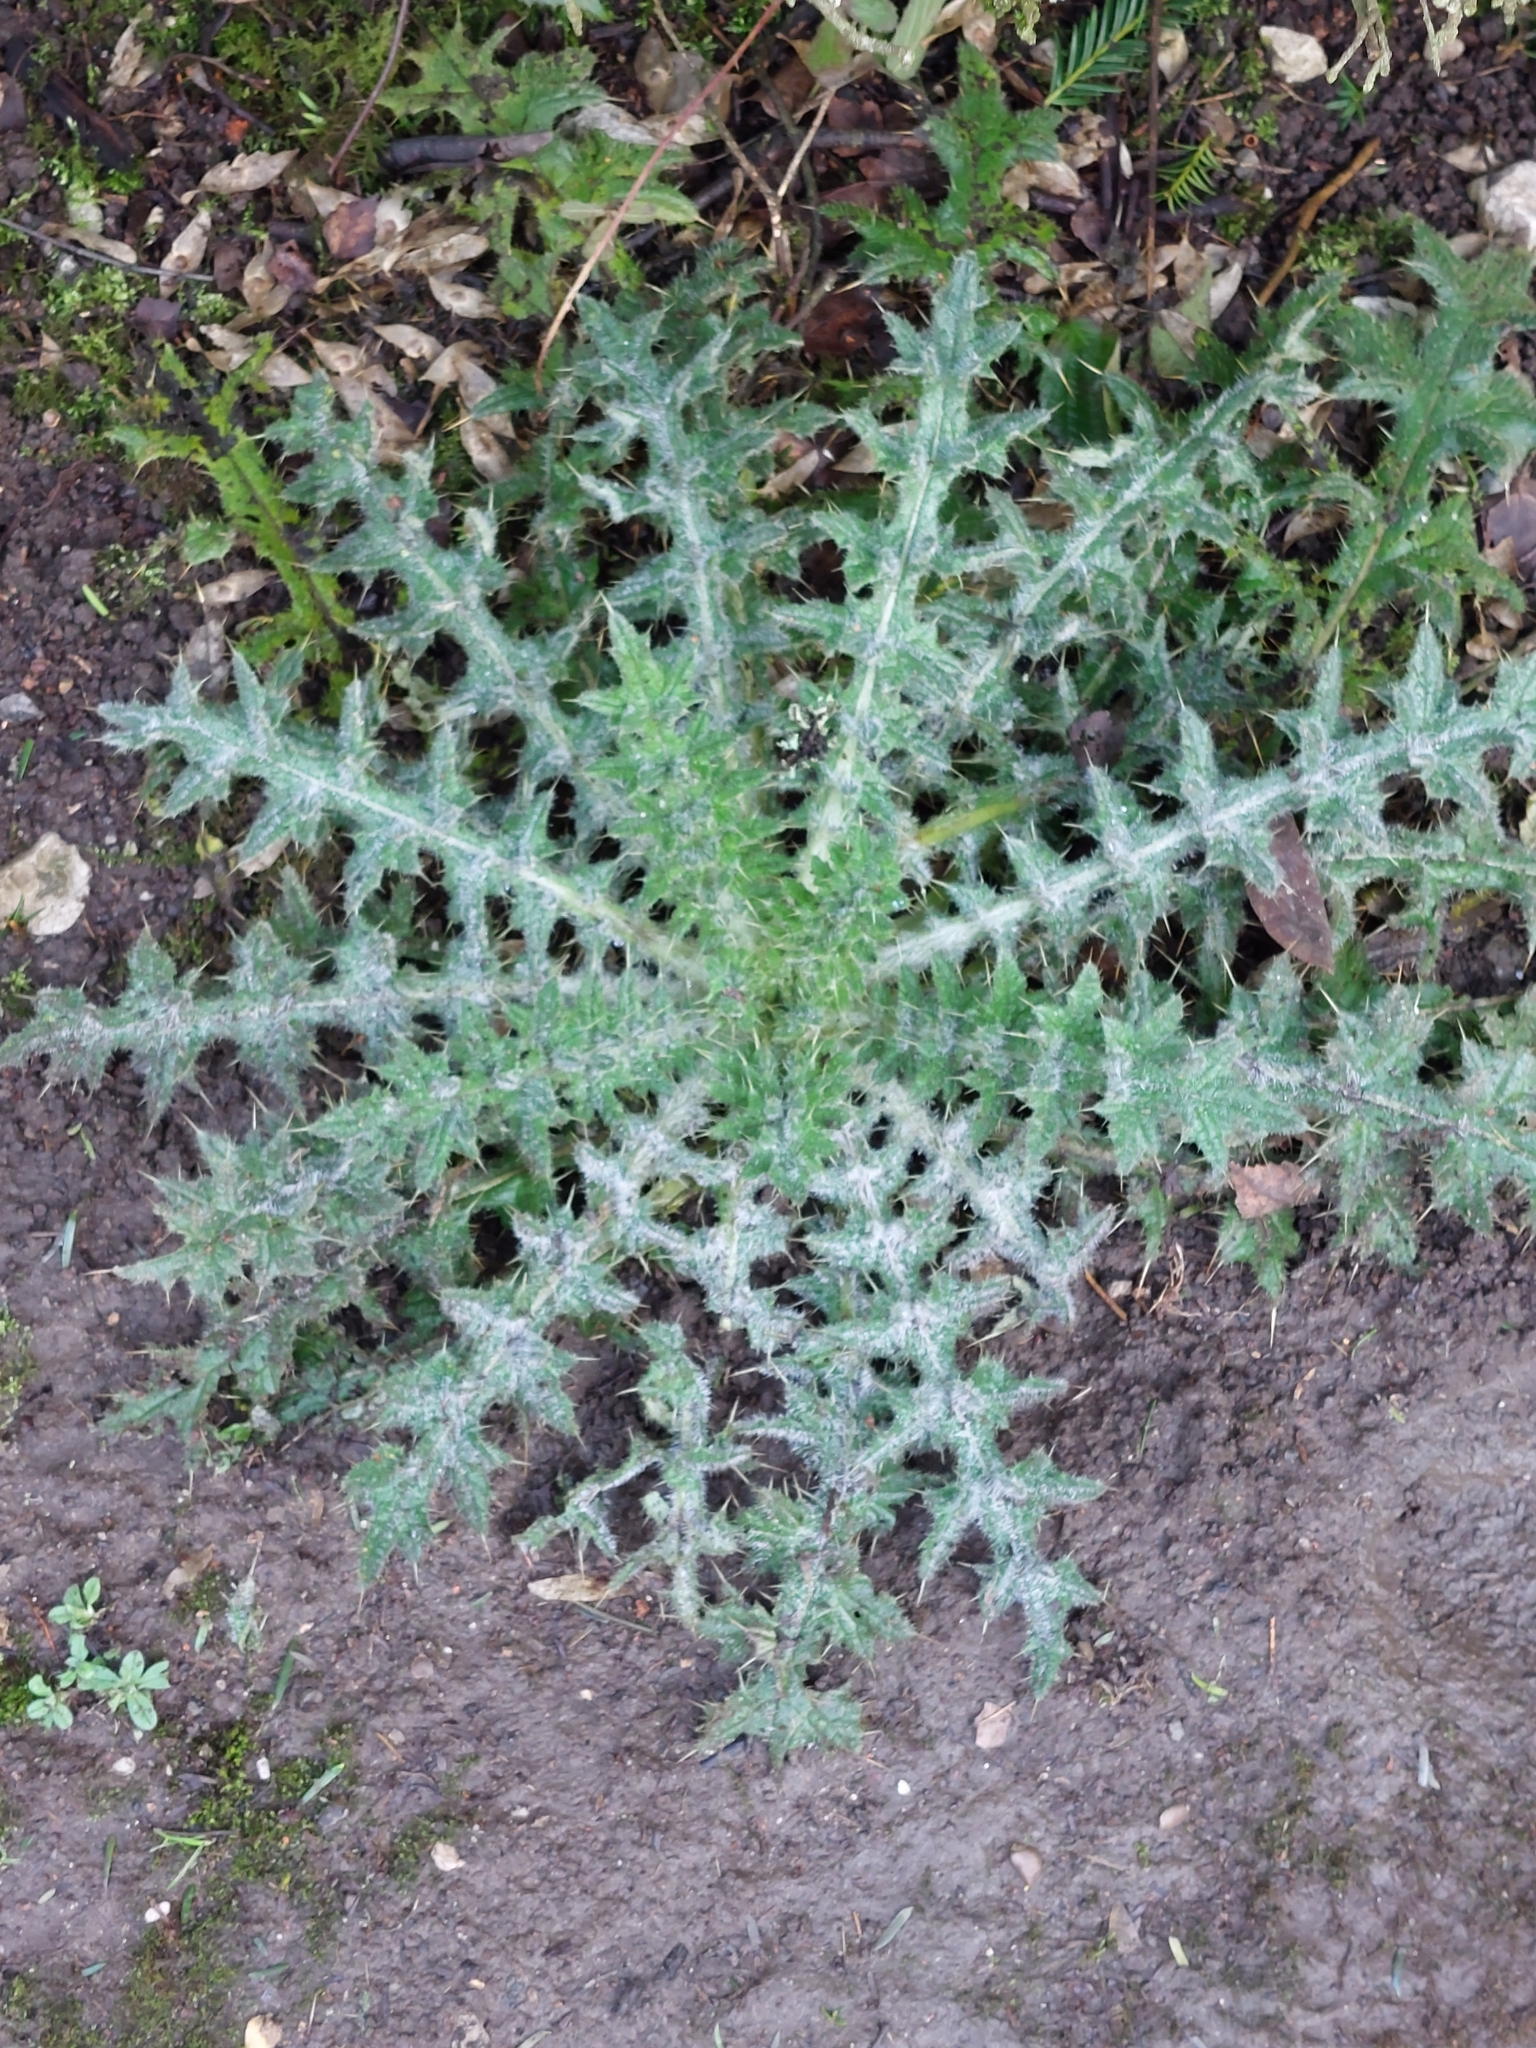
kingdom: Plantae
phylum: Tracheophyta
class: Magnoliopsida
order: Asterales
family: Asteraceae
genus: Cirsium
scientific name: Cirsium vulgare
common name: Bull thistle
